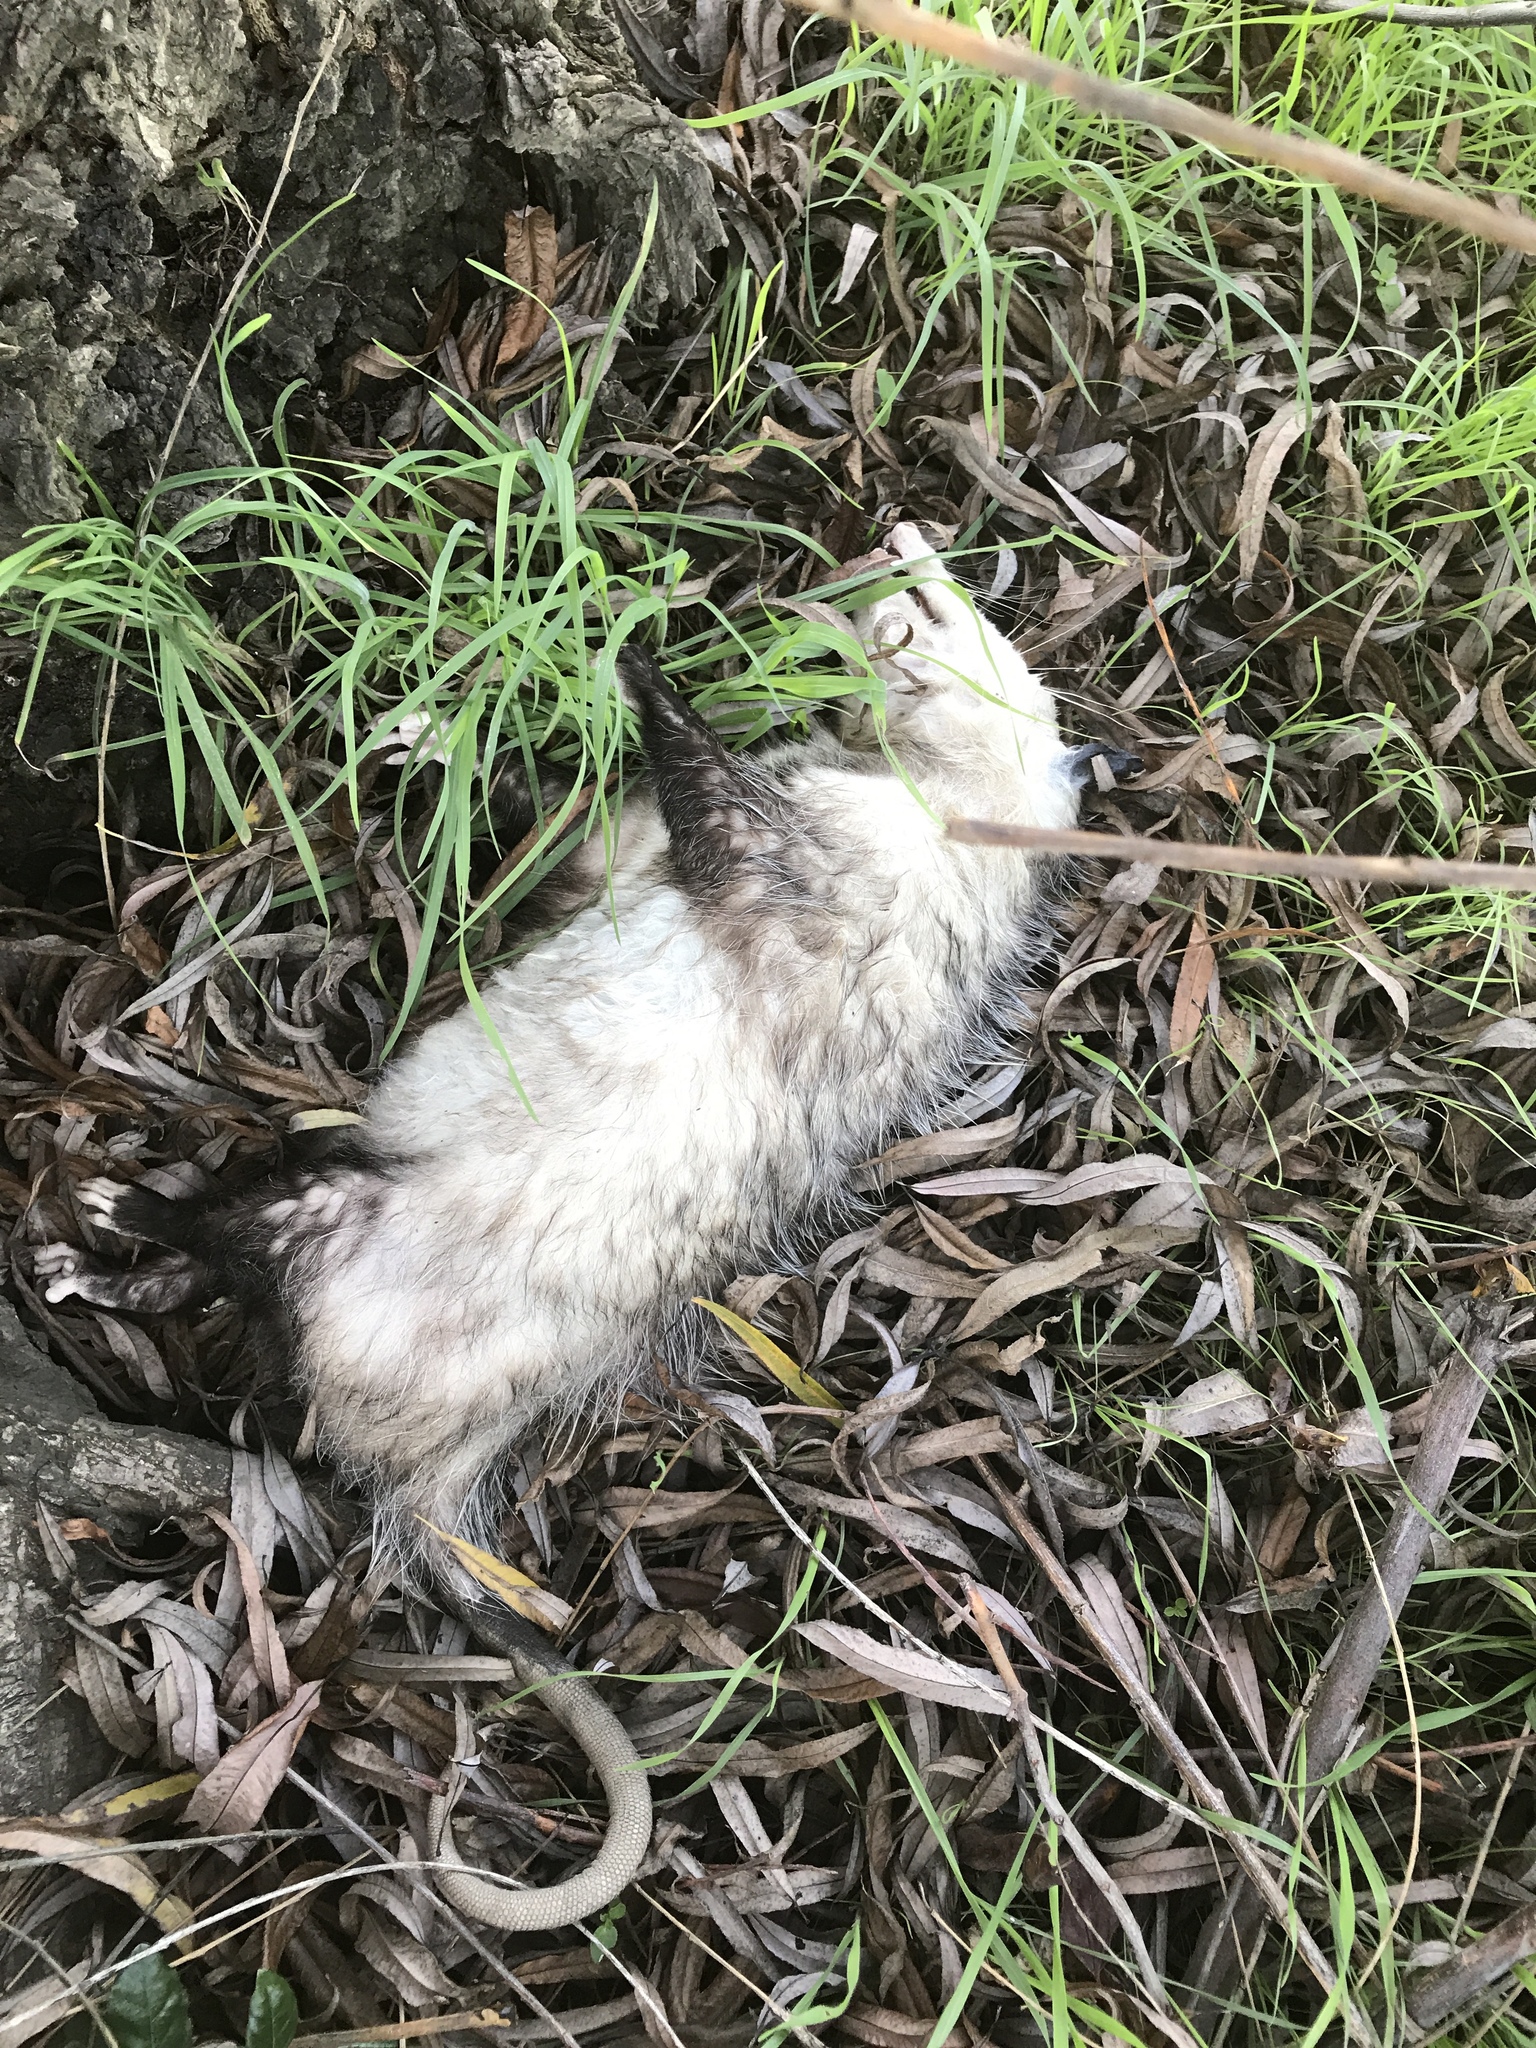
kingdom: Animalia
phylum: Chordata
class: Mammalia
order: Didelphimorphia
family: Didelphidae
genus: Didelphis
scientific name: Didelphis virginiana
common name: Virginia opossum
